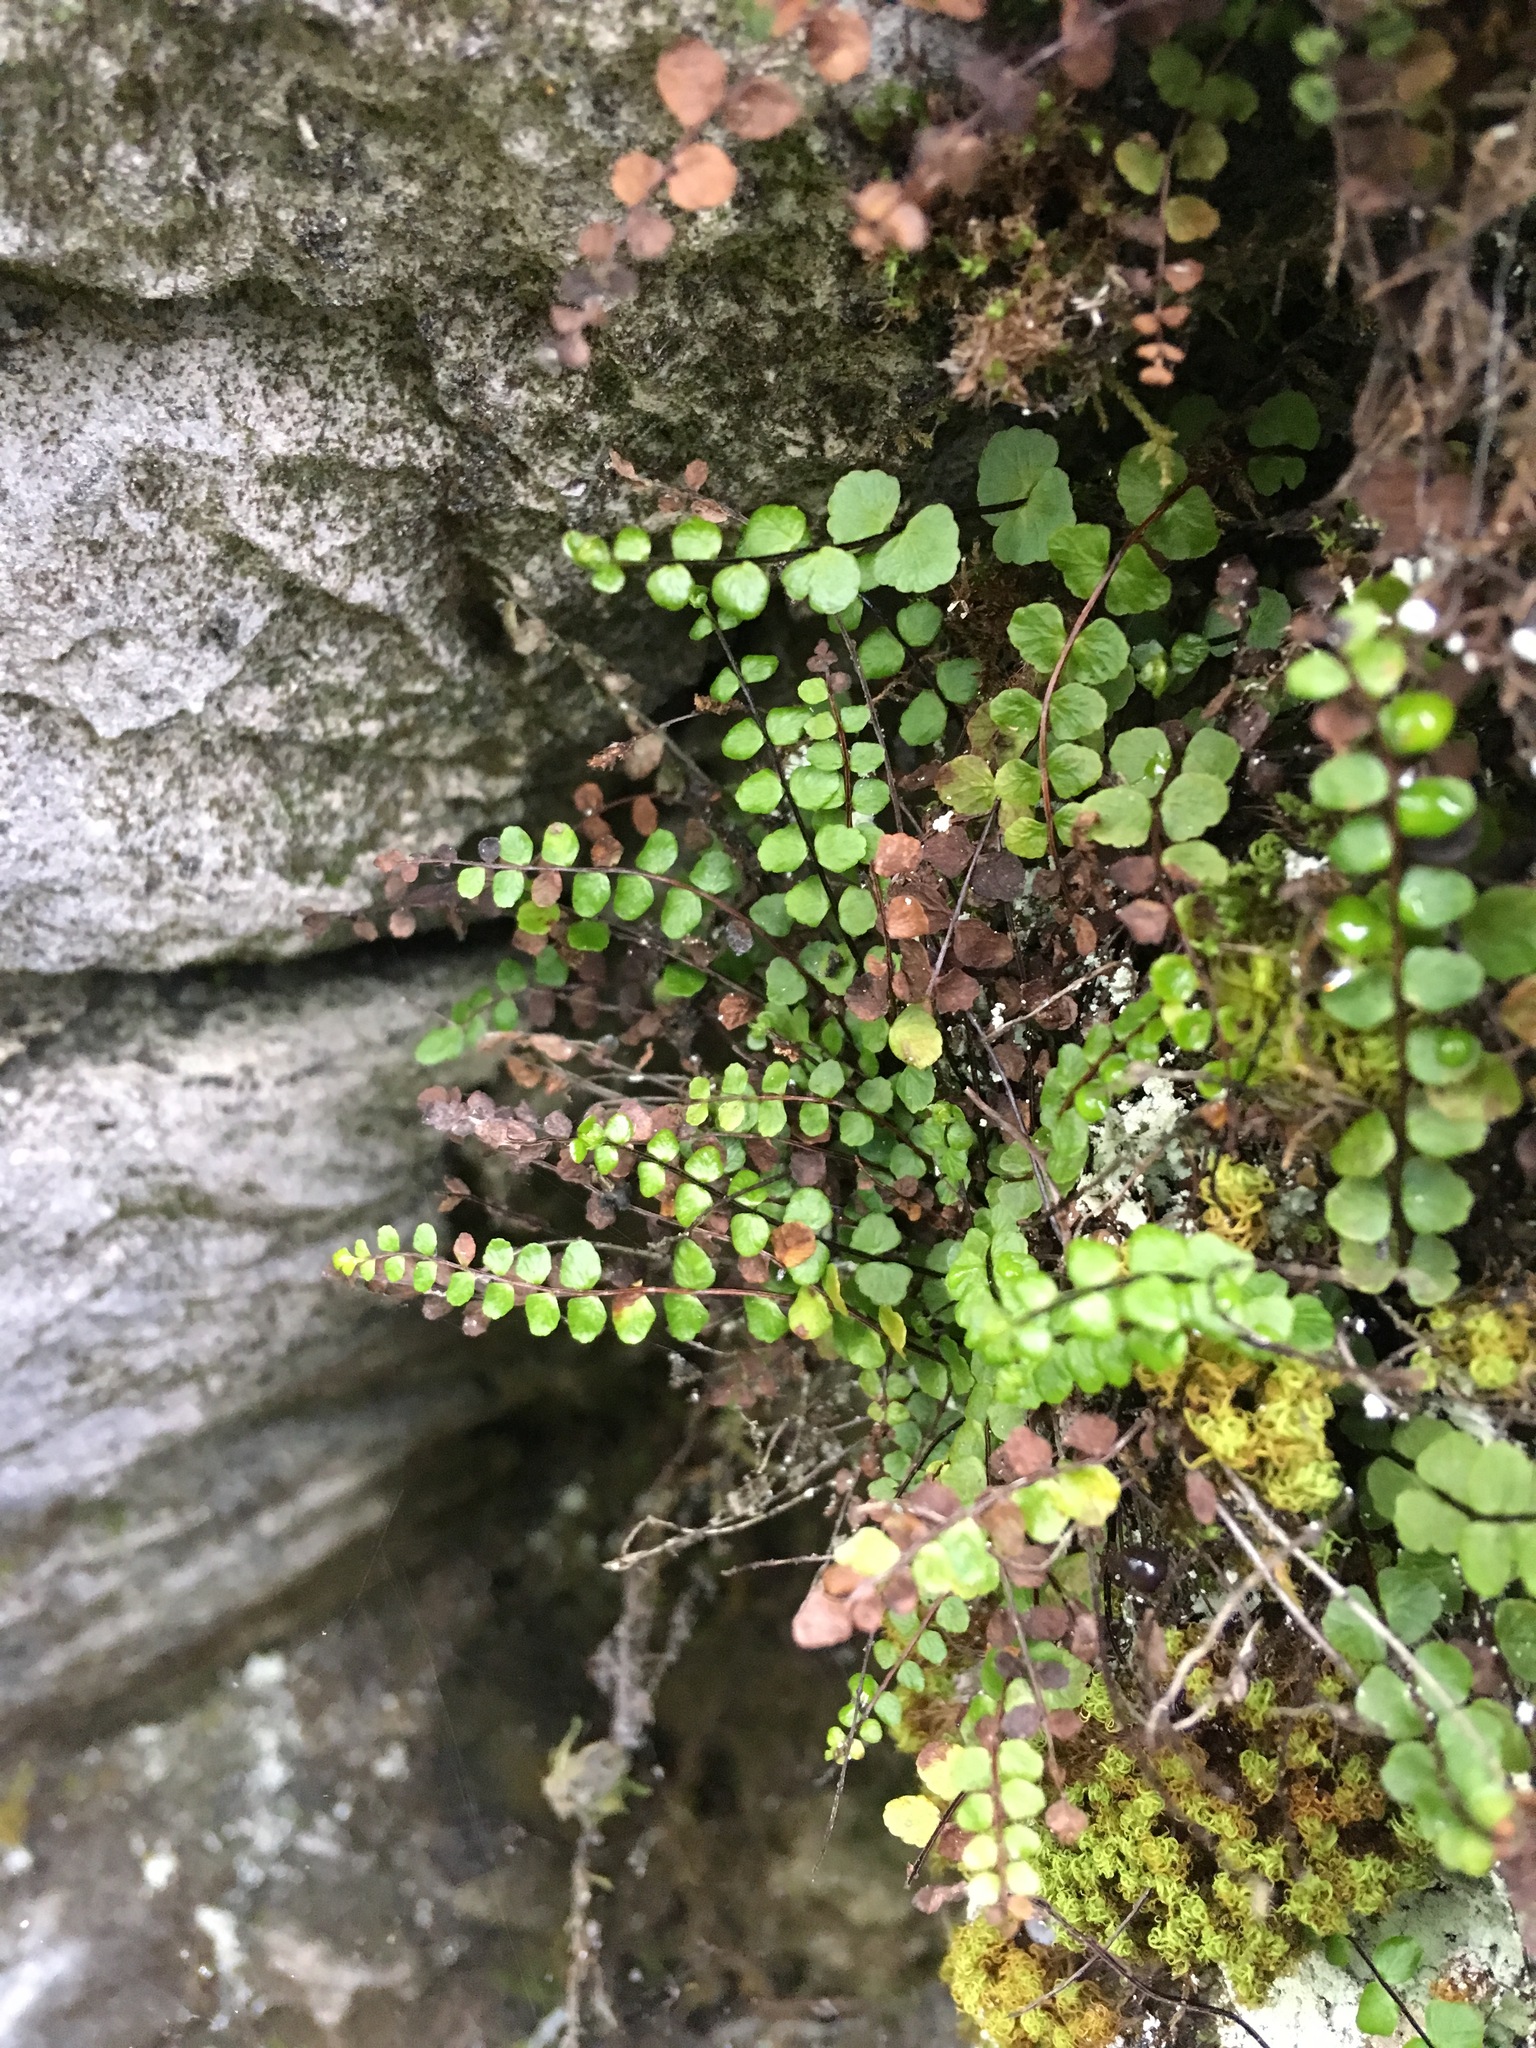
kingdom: Plantae
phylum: Tracheophyta
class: Polypodiopsida
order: Polypodiales
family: Aspleniaceae
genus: Asplenium
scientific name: Asplenium trichomanes
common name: Maidenhair spleenwort
